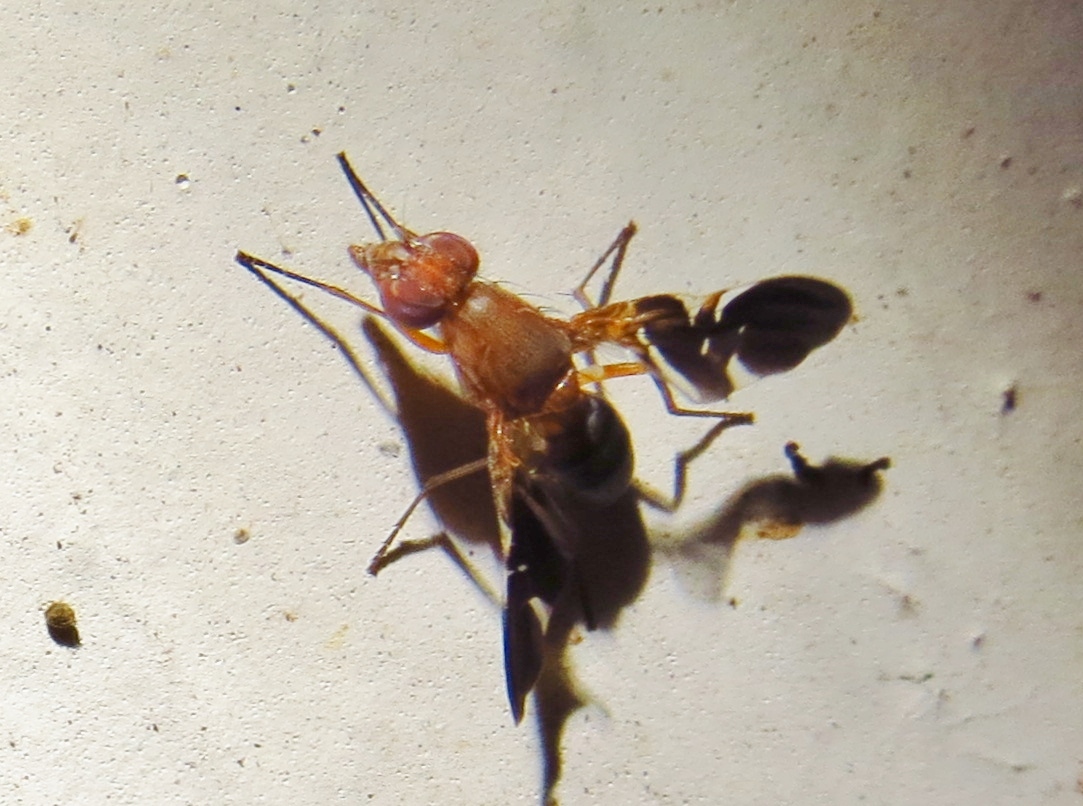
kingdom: Animalia
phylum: Arthropoda
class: Insecta
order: Diptera
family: Ulidiidae
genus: Delphinia
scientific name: Delphinia picta
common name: Common picture-winged fly
